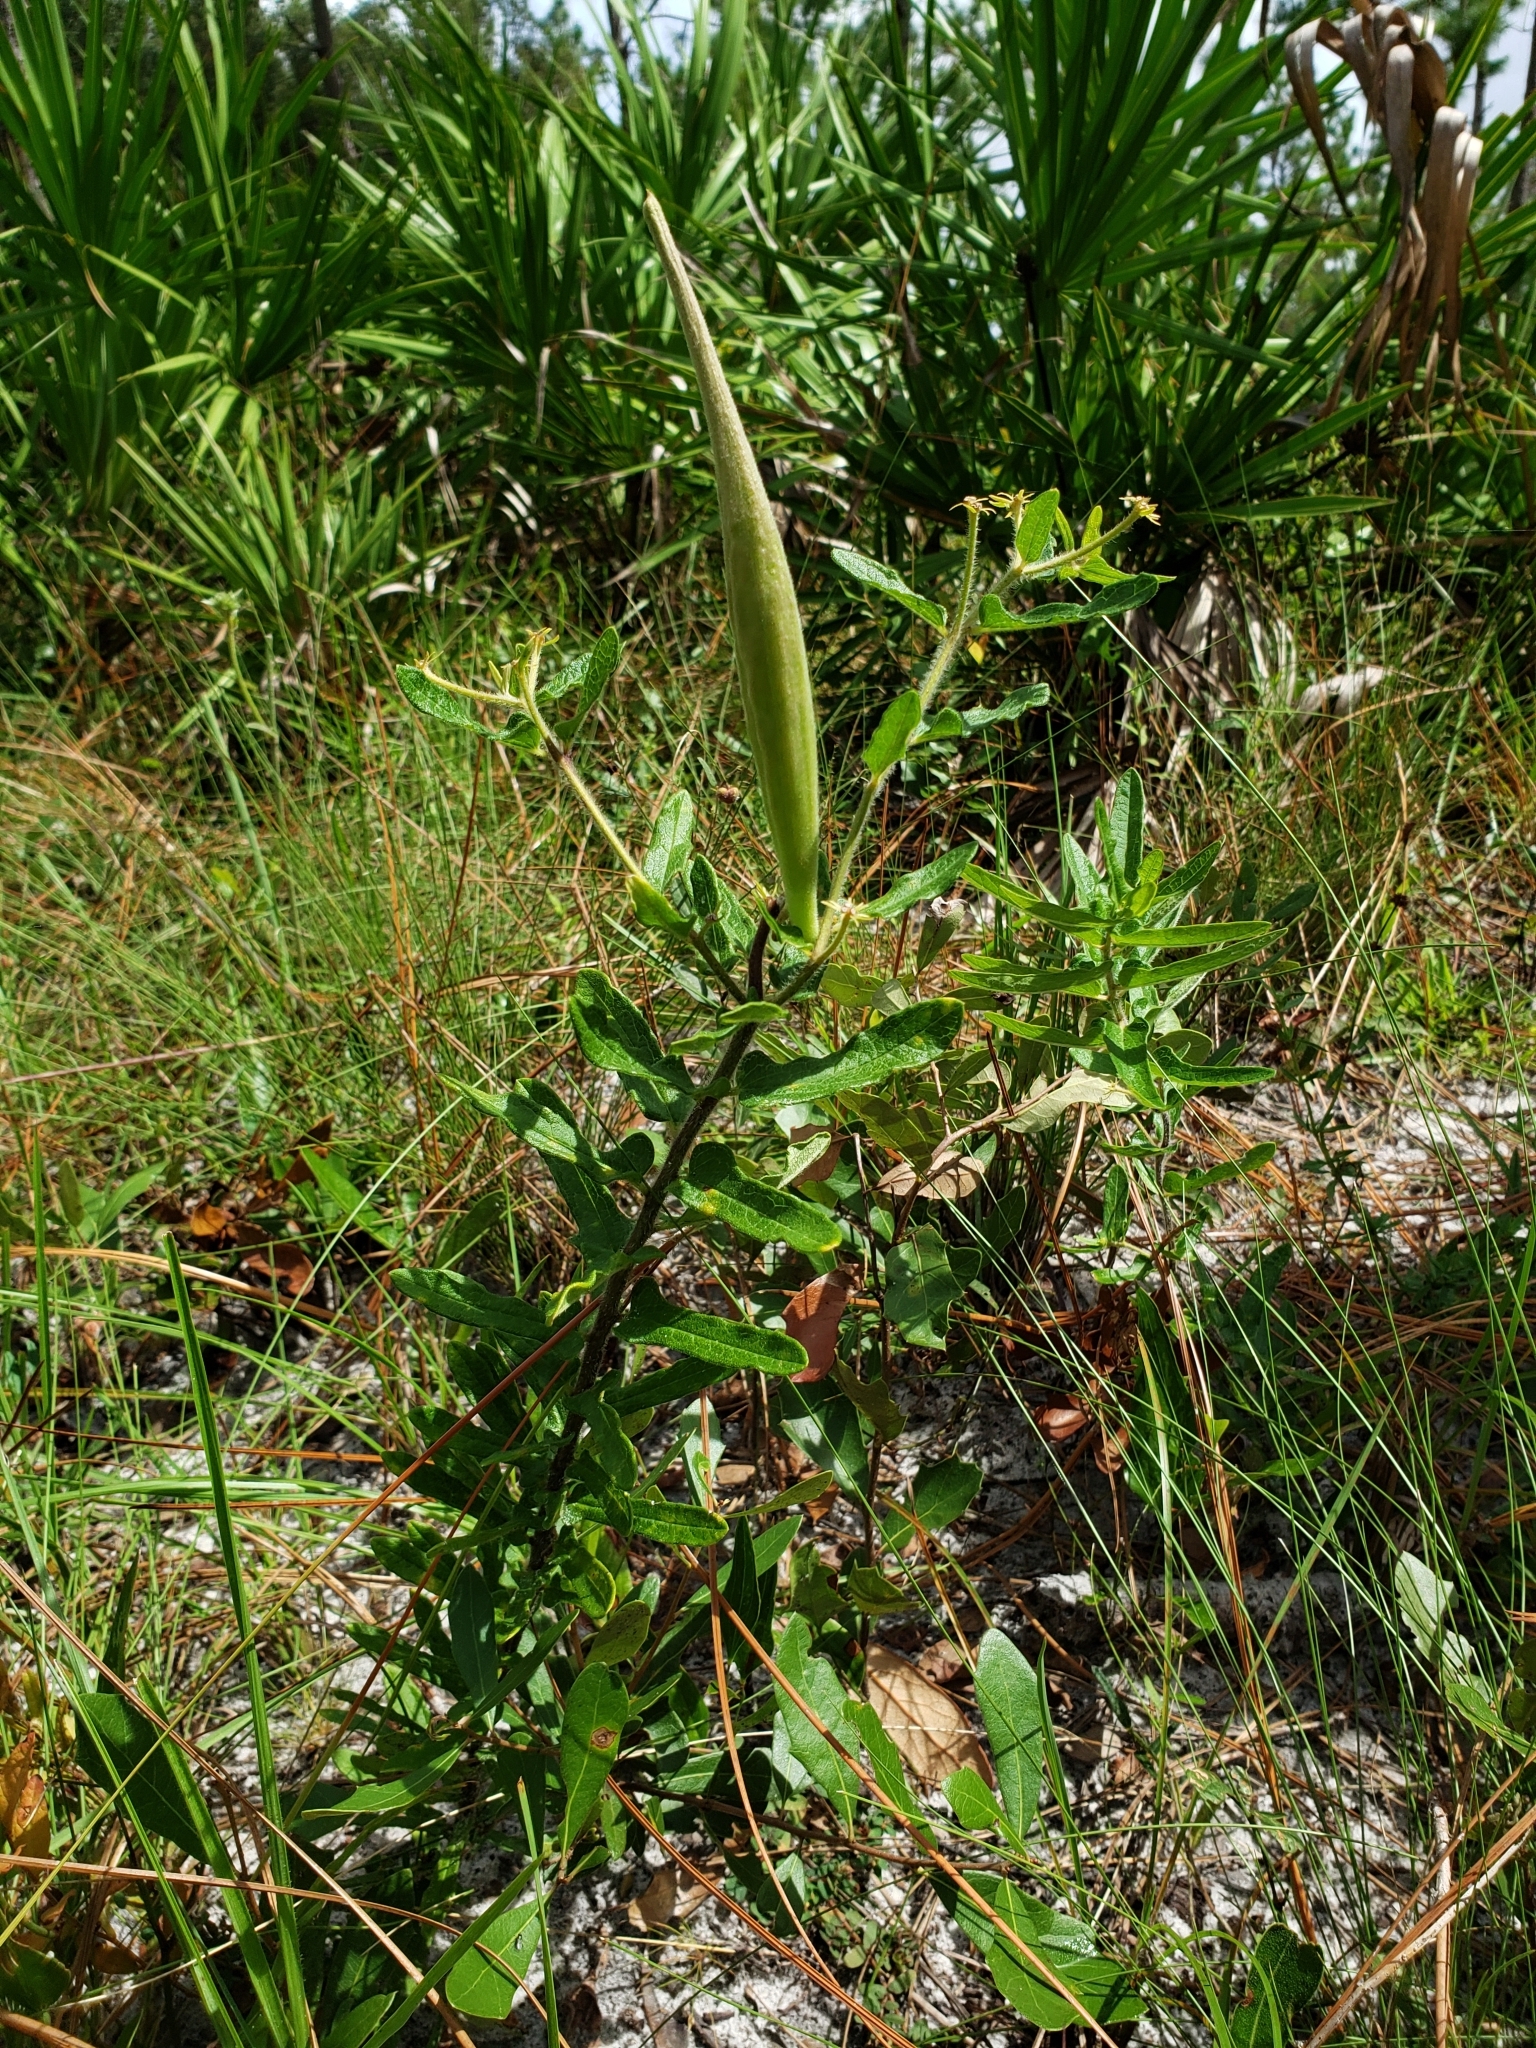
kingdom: Plantae
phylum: Tracheophyta
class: Magnoliopsida
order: Gentianales
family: Apocynaceae
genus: Asclepias
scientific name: Asclepias tuberosa
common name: Butterfly milkweed
